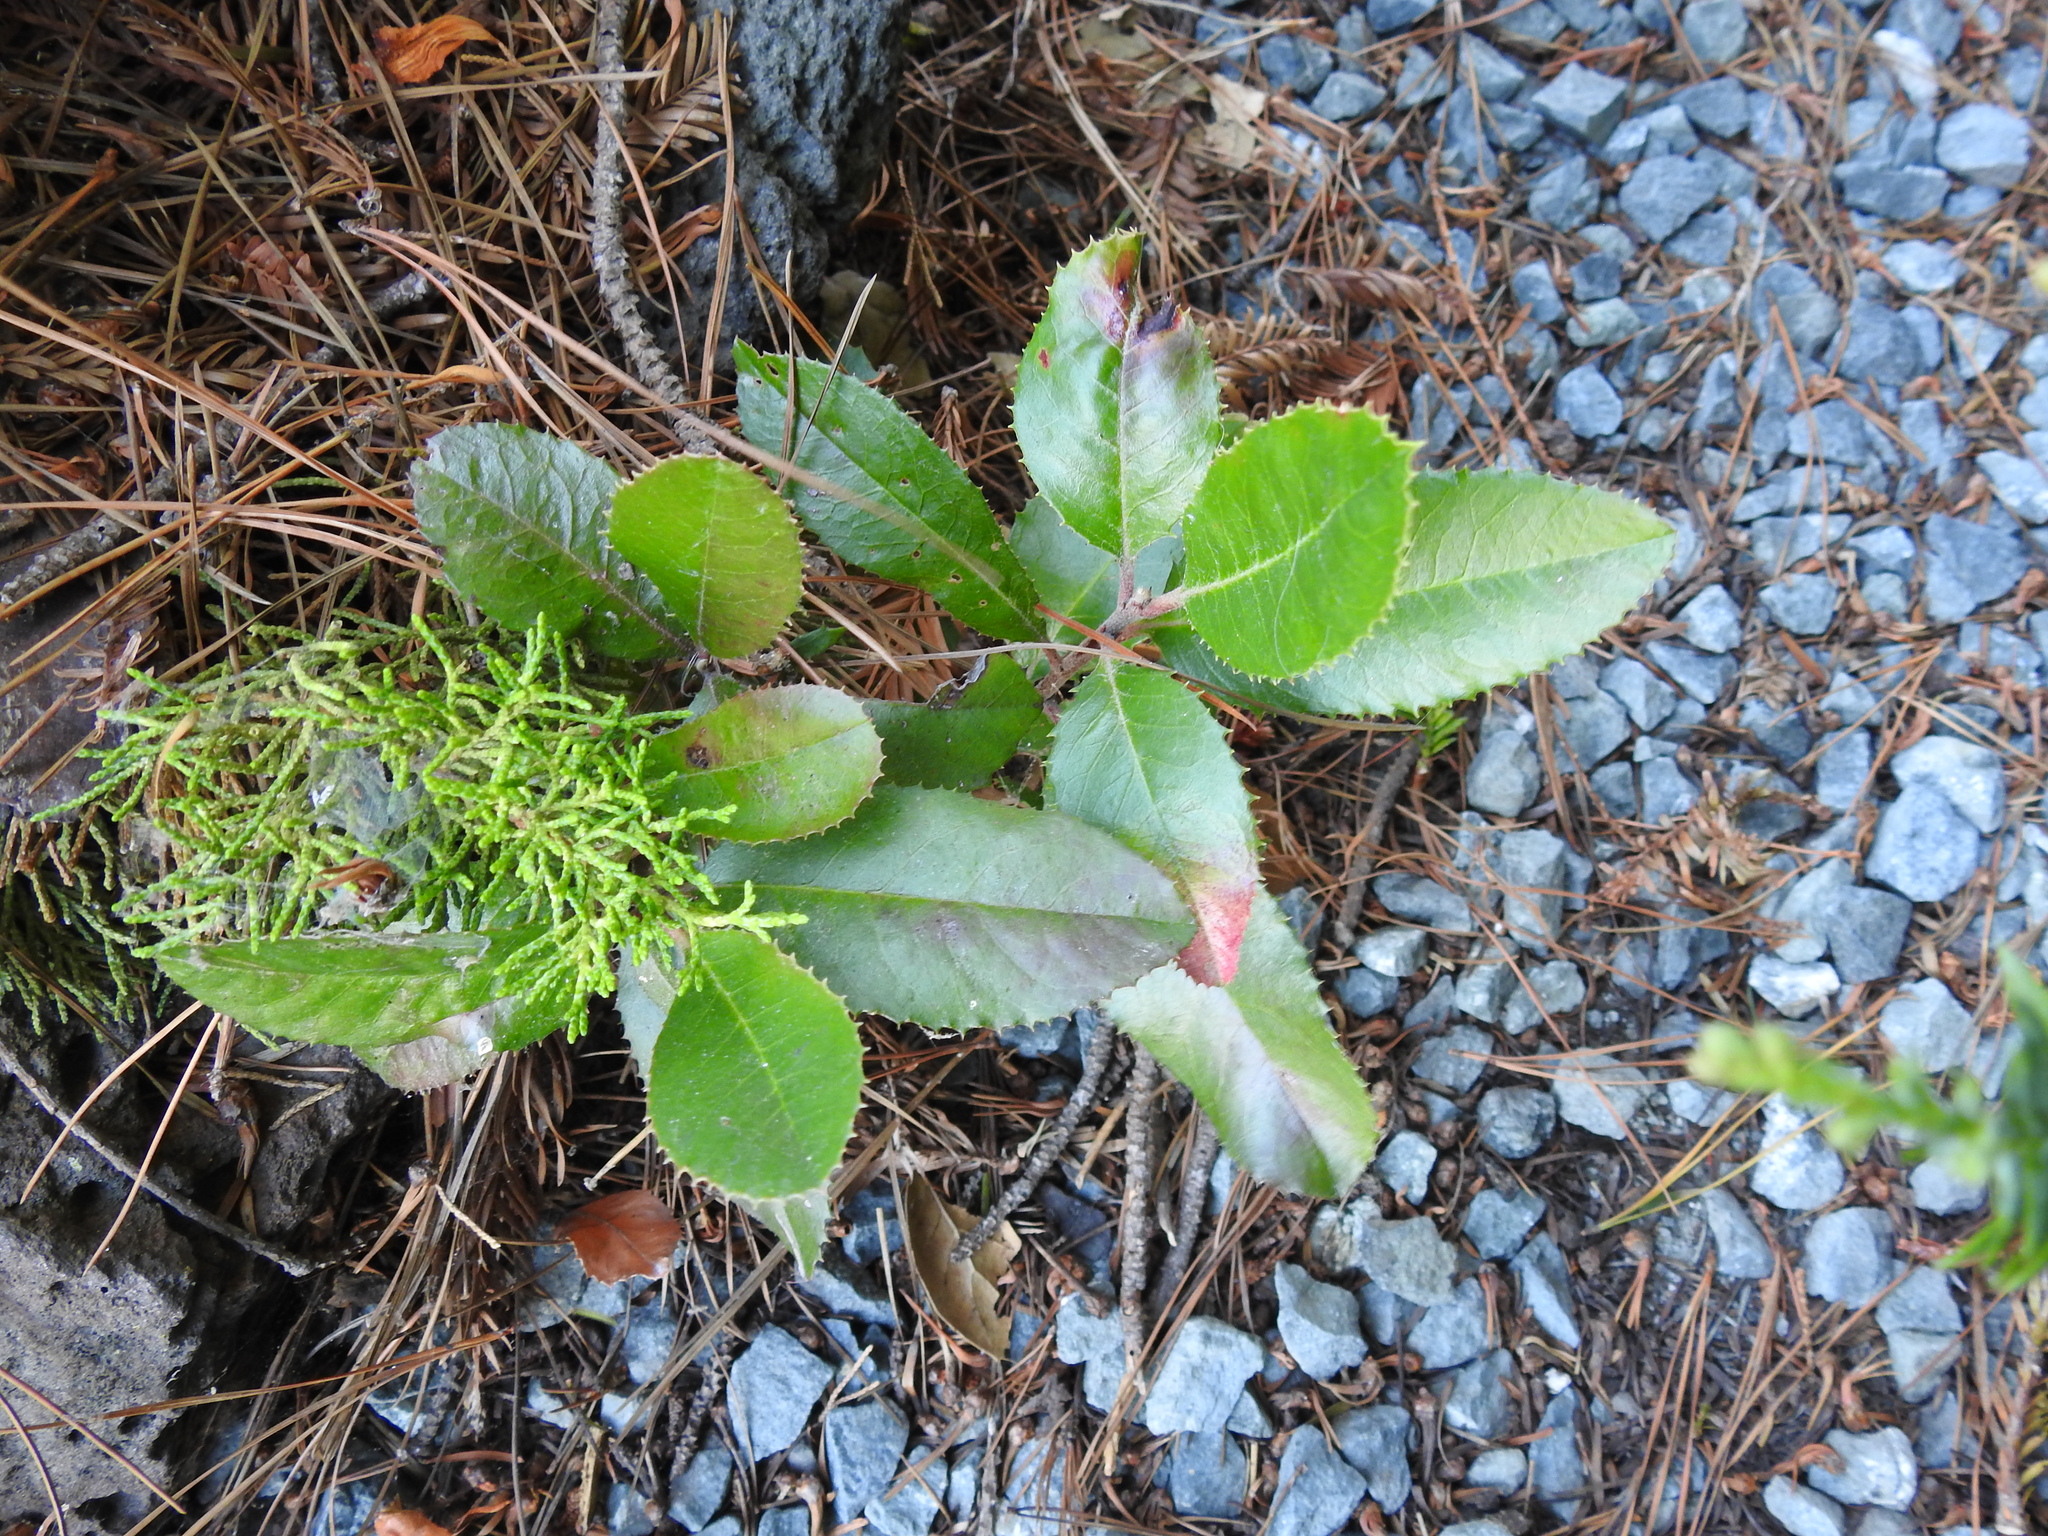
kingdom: Plantae
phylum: Tracheophyta
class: Magnoliopsida
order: Rosales
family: Rosaceae
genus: Heteromeles
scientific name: Heteromeles arbutifolia
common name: California-holly
